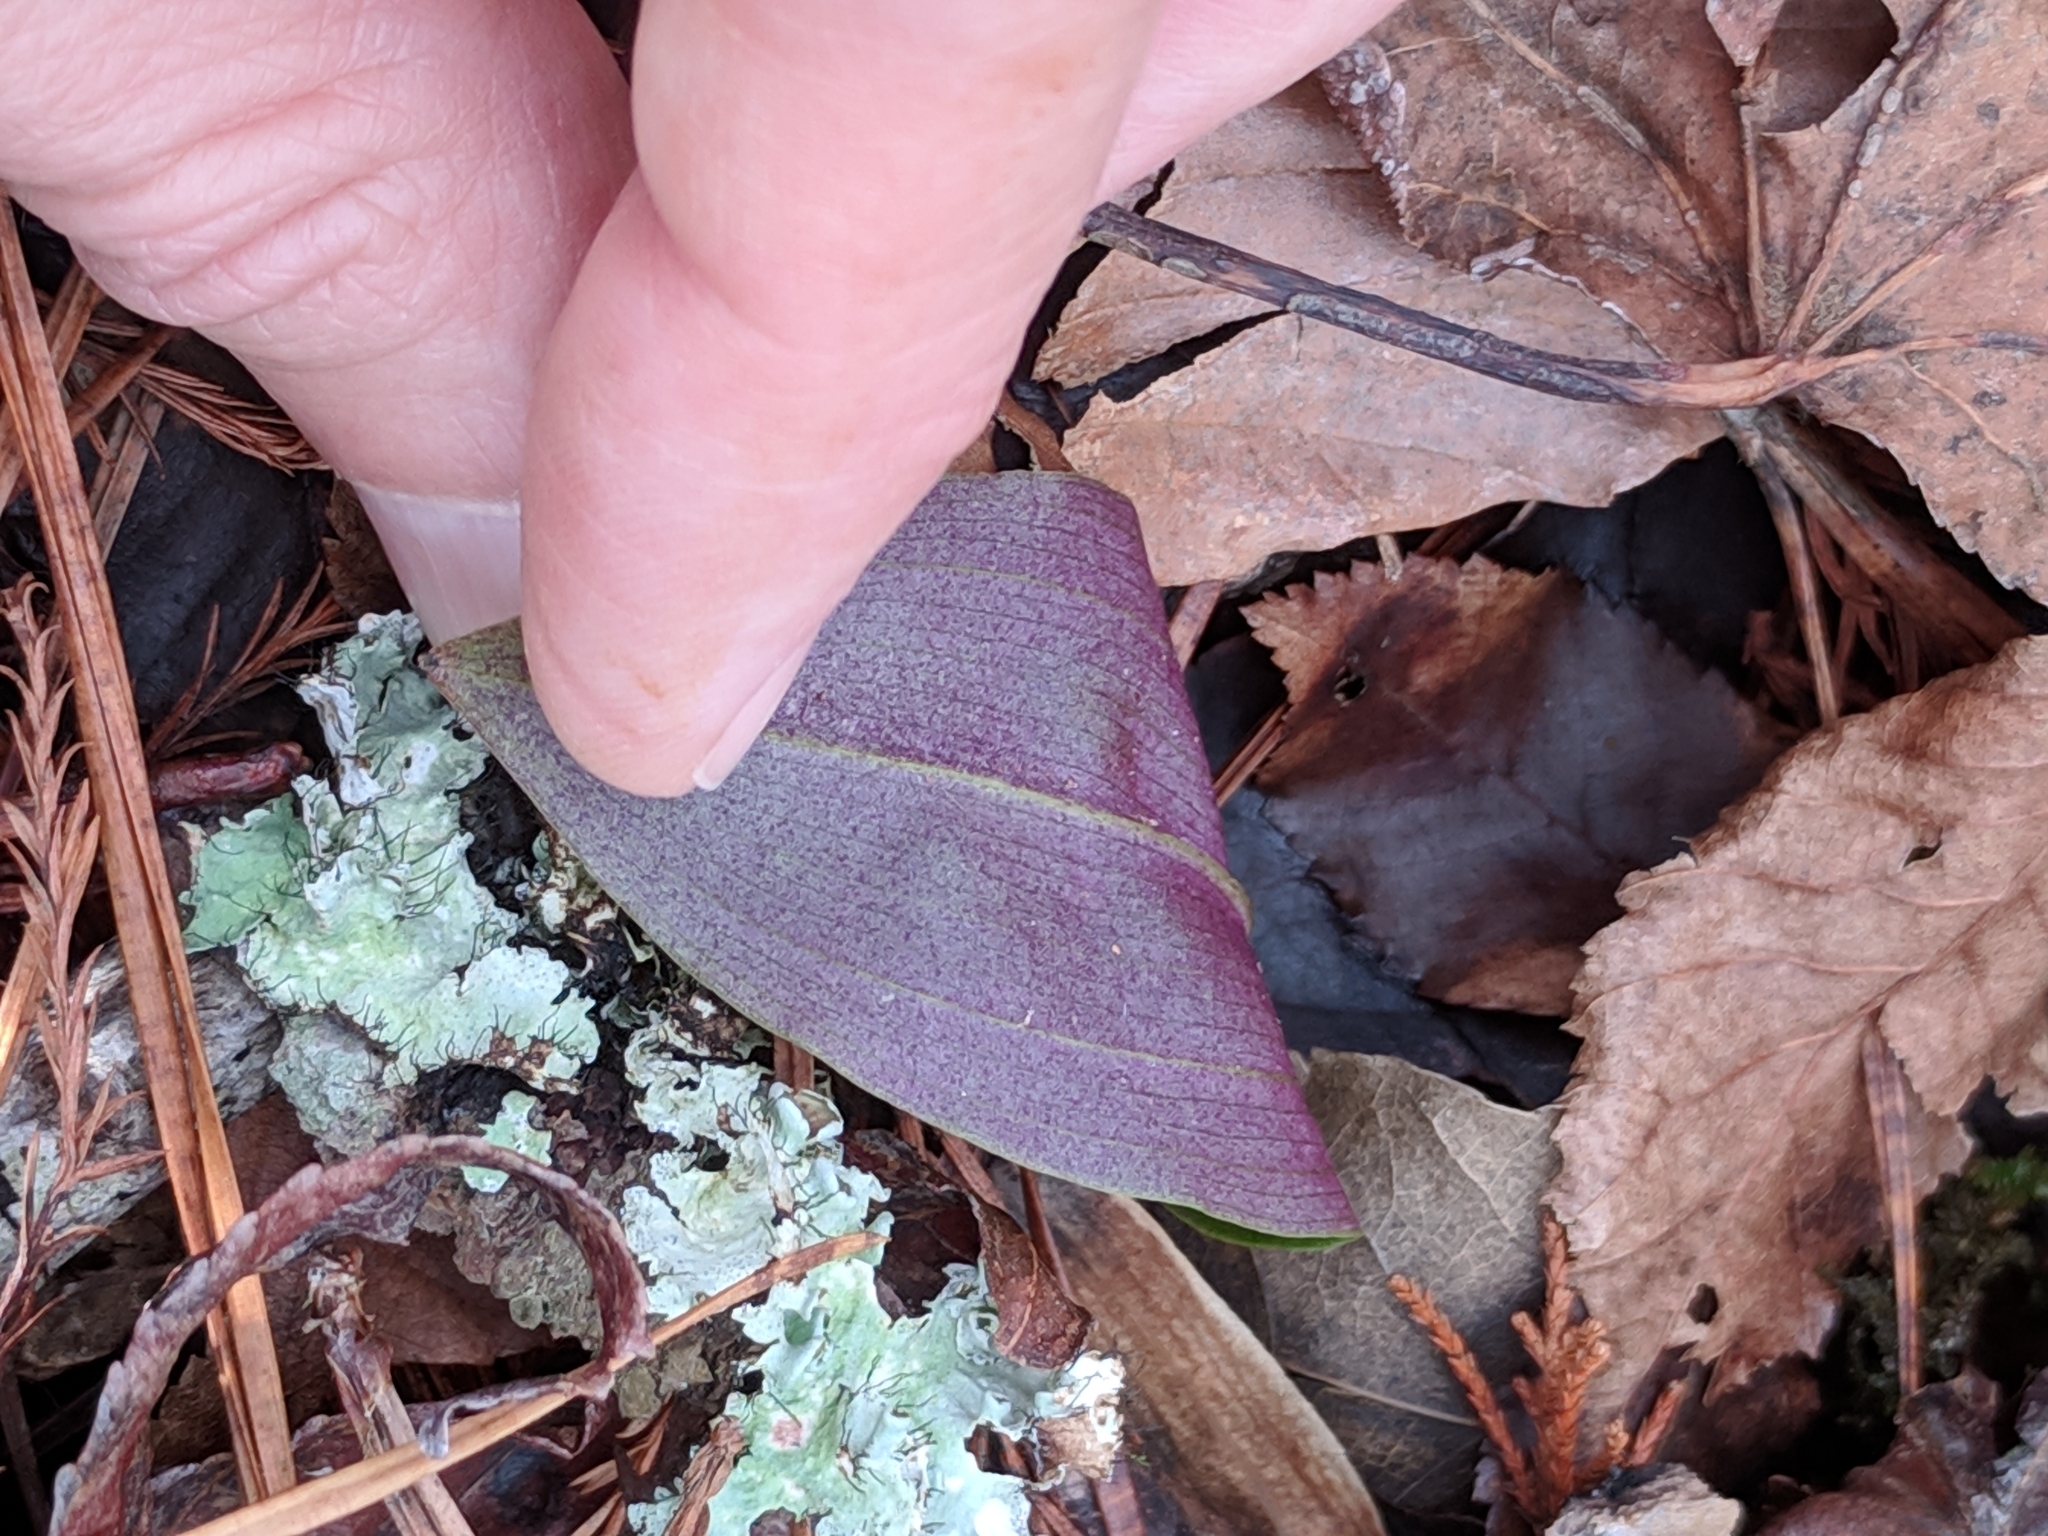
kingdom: Plantae
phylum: Tracheophyta
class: Liliopsida
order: Asparagales
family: Orchidaceae
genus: Tipularia
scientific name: Tipularia discolor
